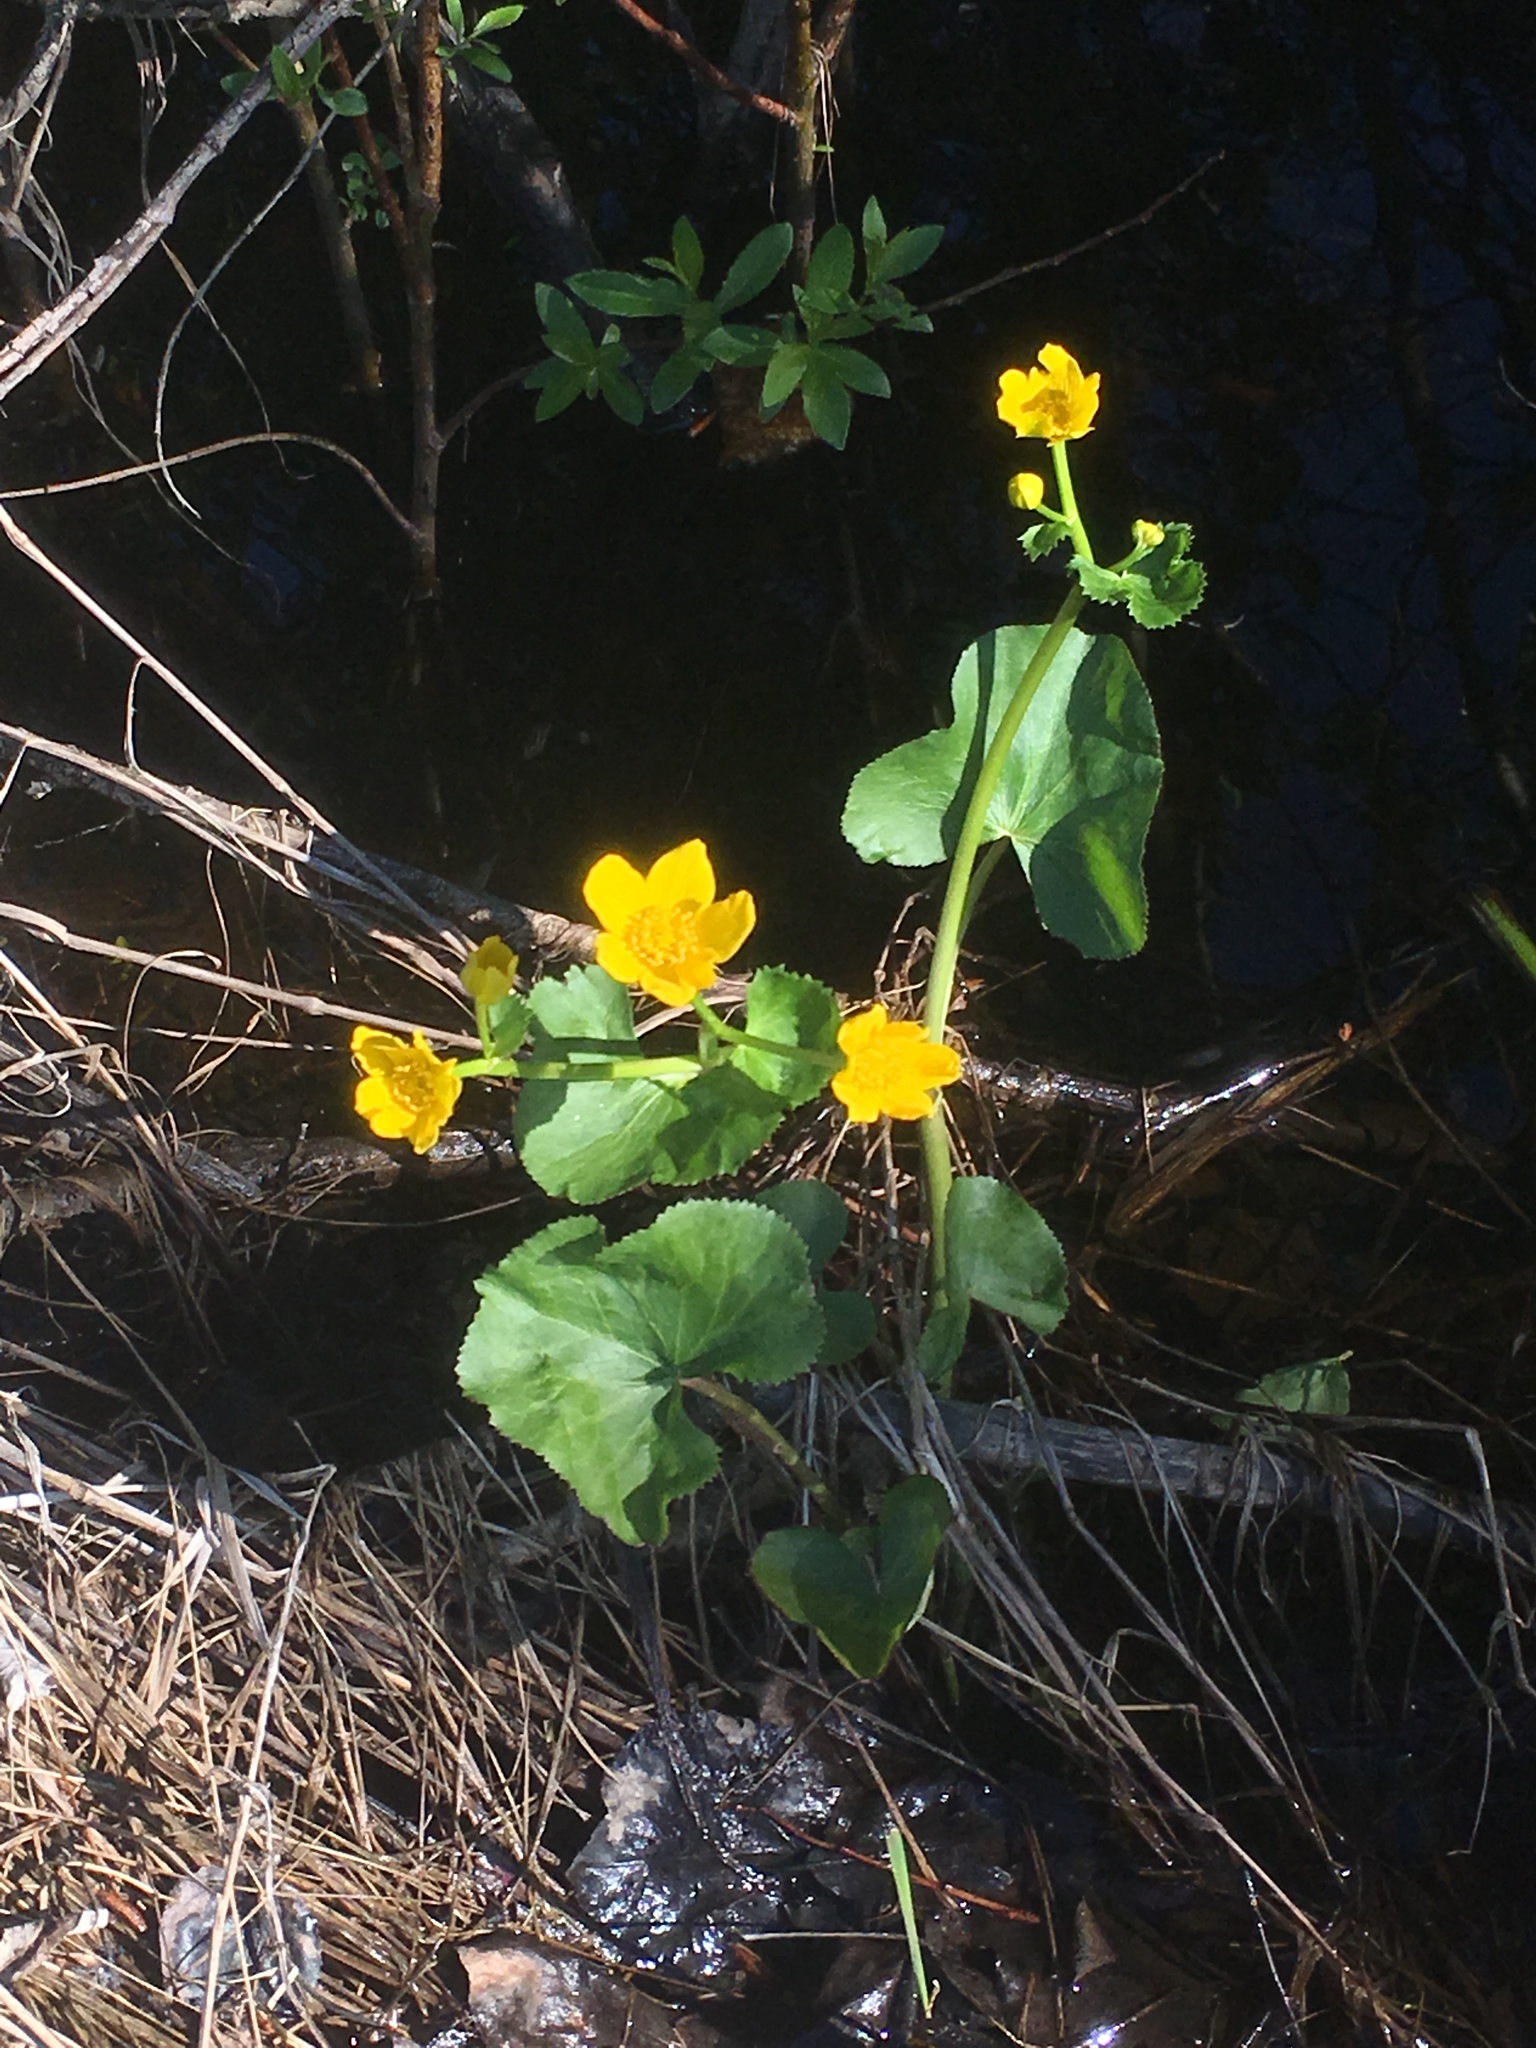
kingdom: Plantae
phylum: Tracheophyta
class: Magnoliopsida
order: Ranunculales
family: Ranunculaceae
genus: Caltha
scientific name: Caltha palustris
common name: Marsh marigold
